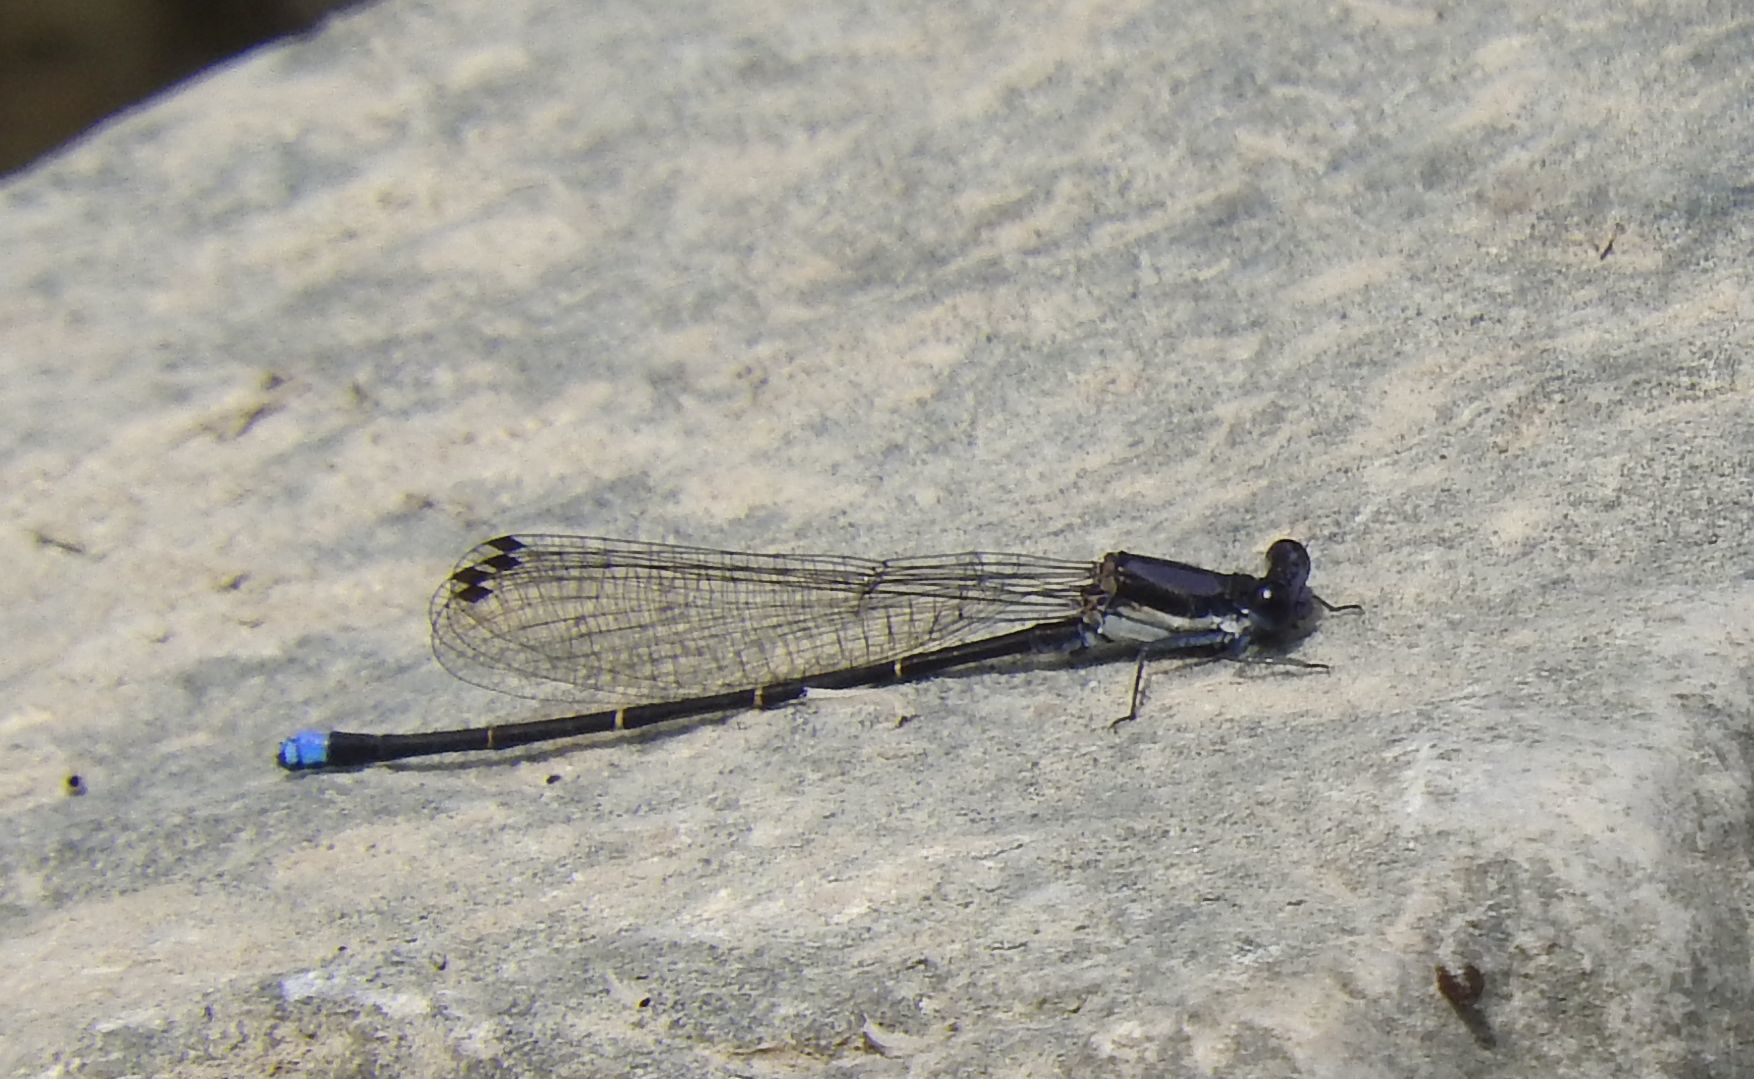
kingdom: Animalia
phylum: Arthropoda
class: Insecta
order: Odonata
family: Coenagrionidae
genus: Argia
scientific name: Argia tibialis
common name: Blue-tipped dancer
